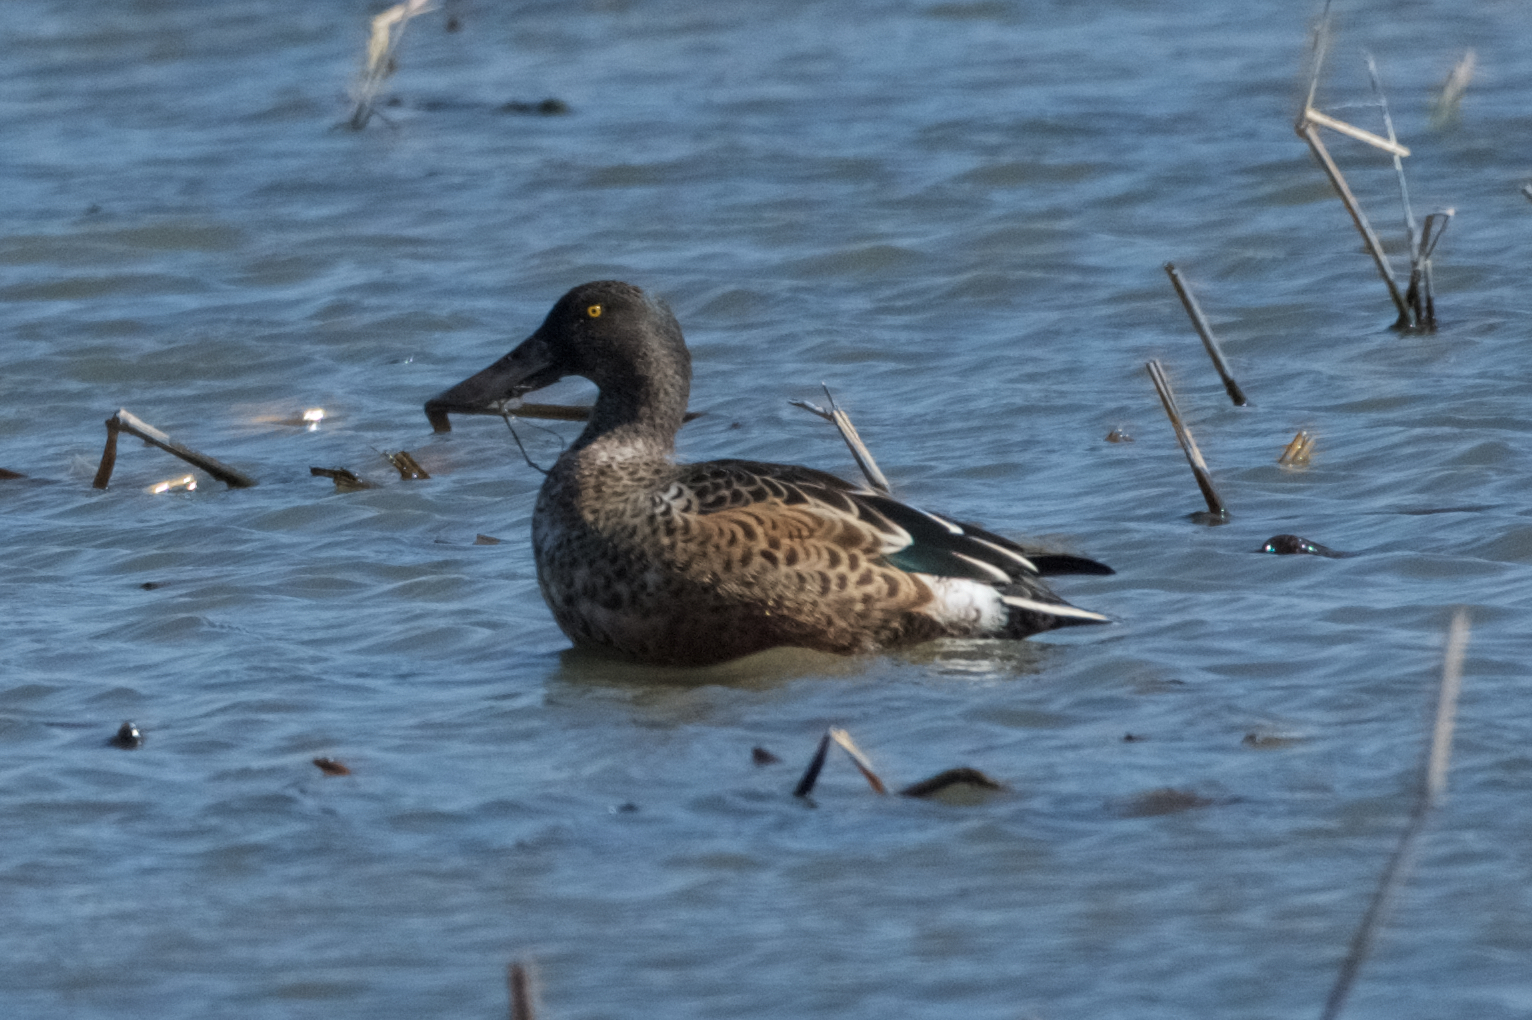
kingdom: Animalia
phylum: Chordata
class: Aves
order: Anseriformes
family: Anatidae
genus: Spatula
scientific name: Spatula clypeata
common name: Northern shoveler
